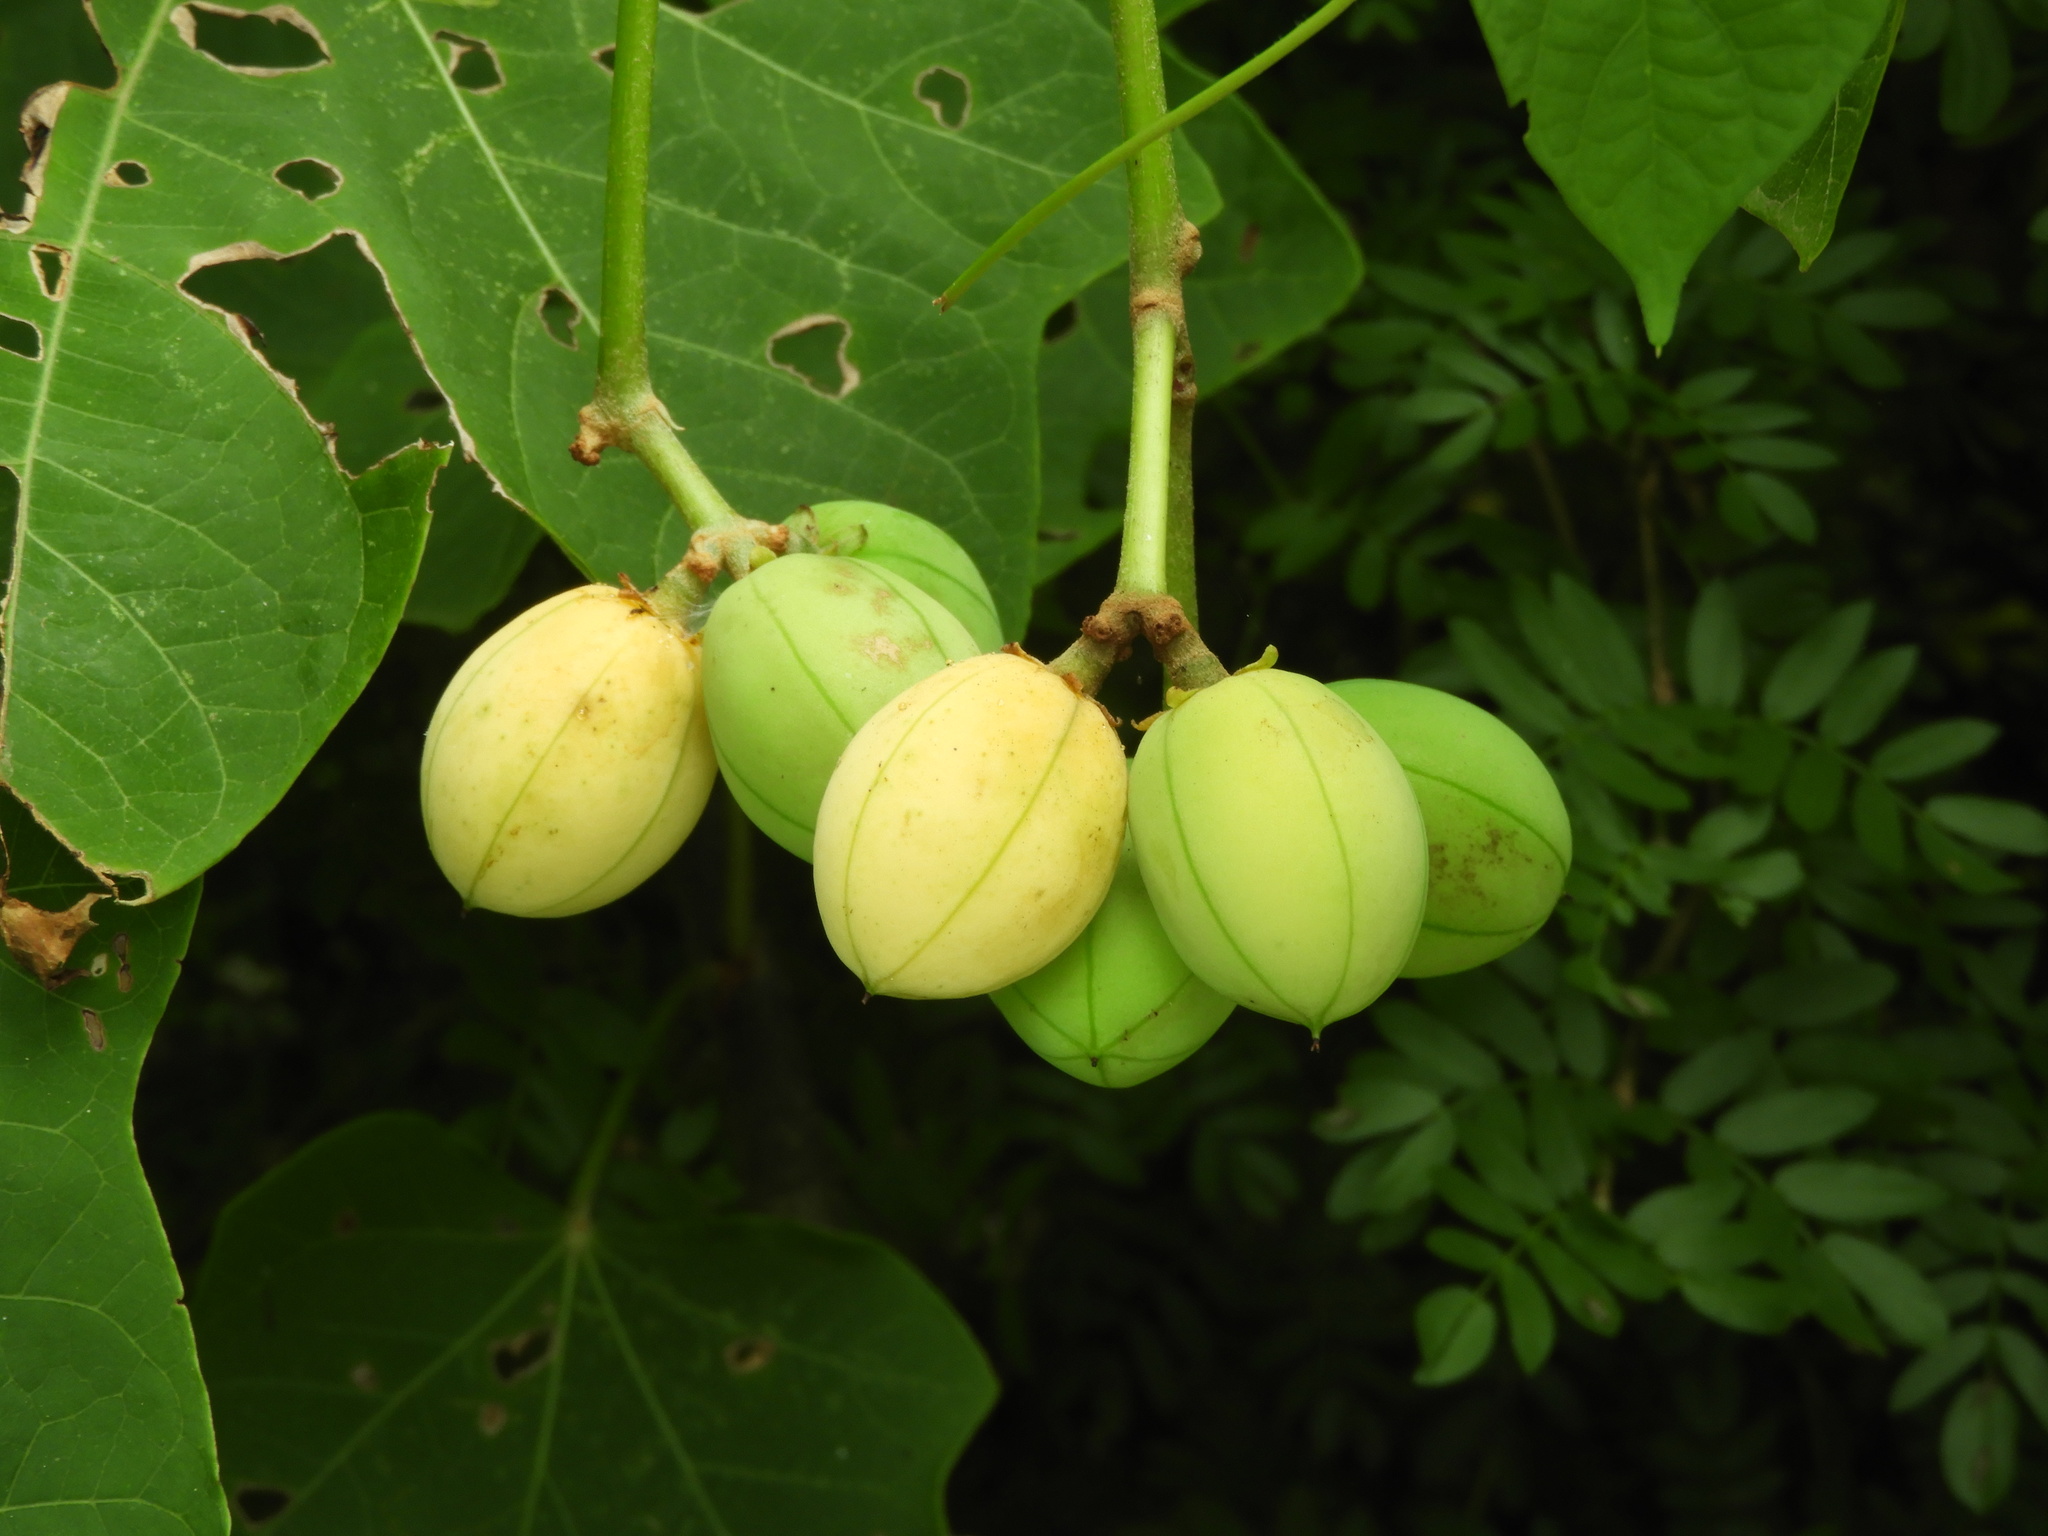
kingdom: Plantae
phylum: Tracheophyta
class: Magnoliopsida
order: Malpighiales
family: Euphorbiaceae
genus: Jatropha
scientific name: Jatropha curcas
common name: Barbados nut
